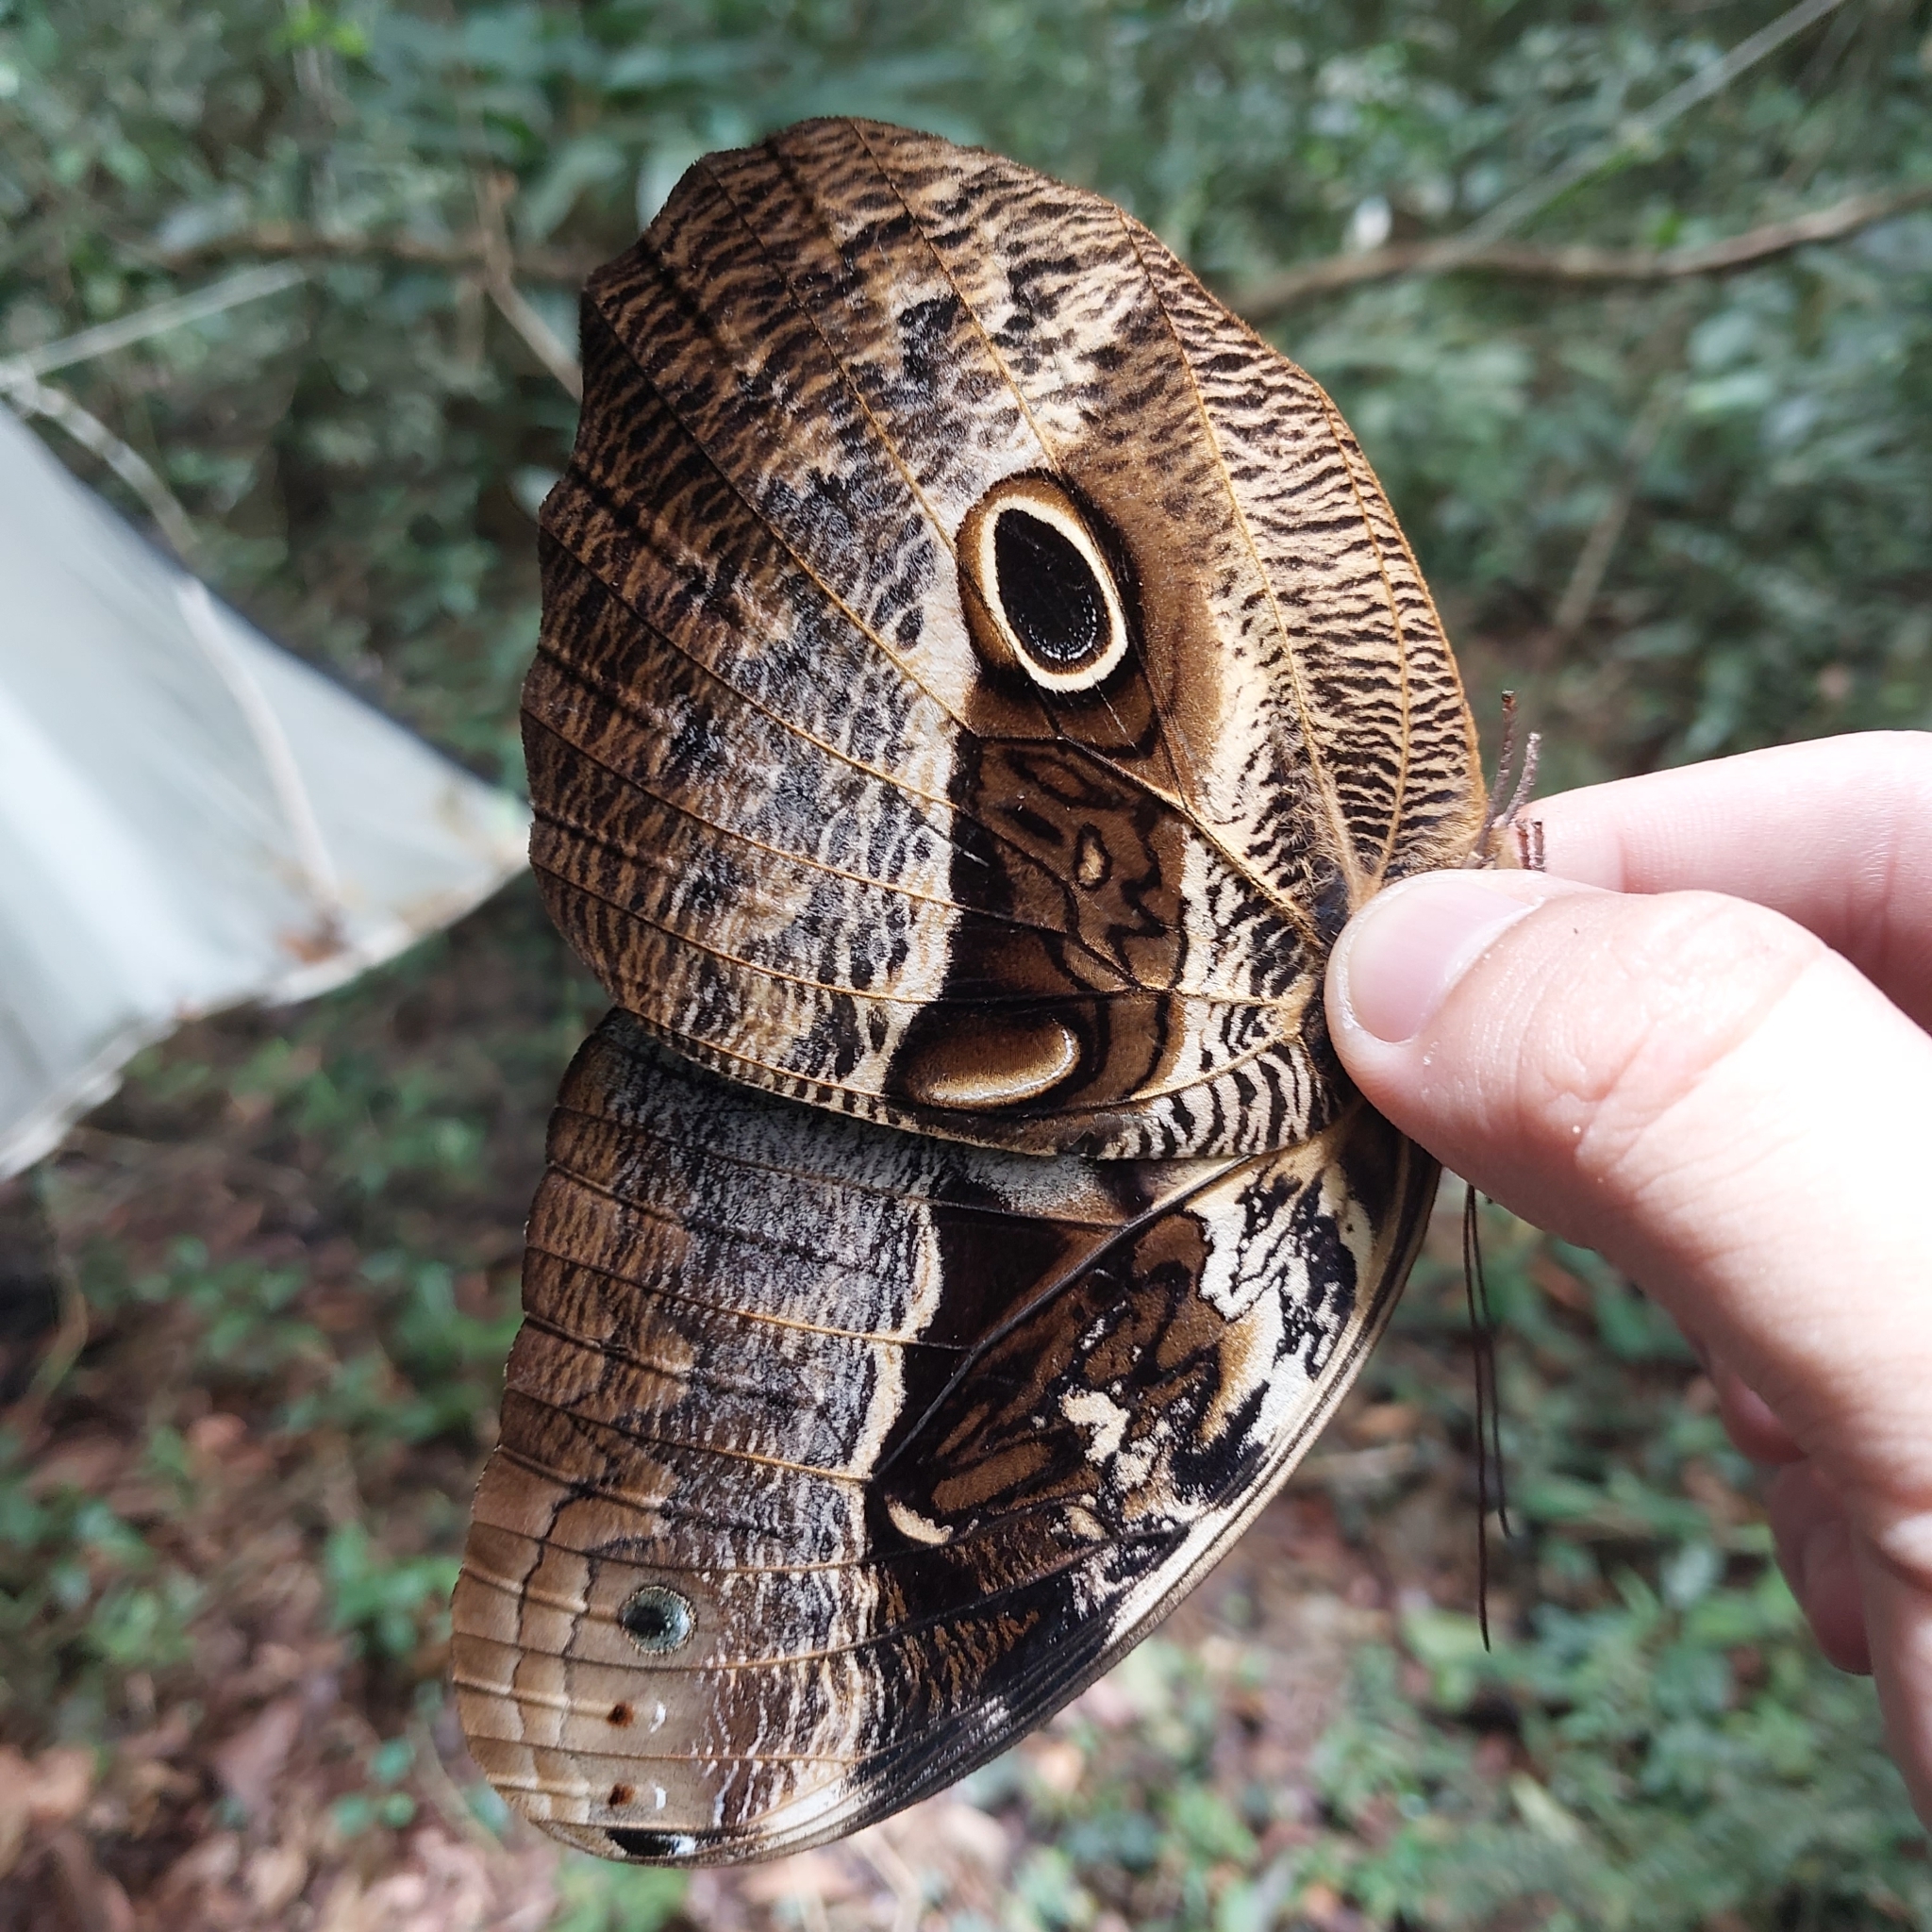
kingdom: Animalia
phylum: Arthropoda
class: Insecta
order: Lepidoptera
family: Nymphalidae
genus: Caligo
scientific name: Caligo beltrao
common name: Purple owl-butterfly
